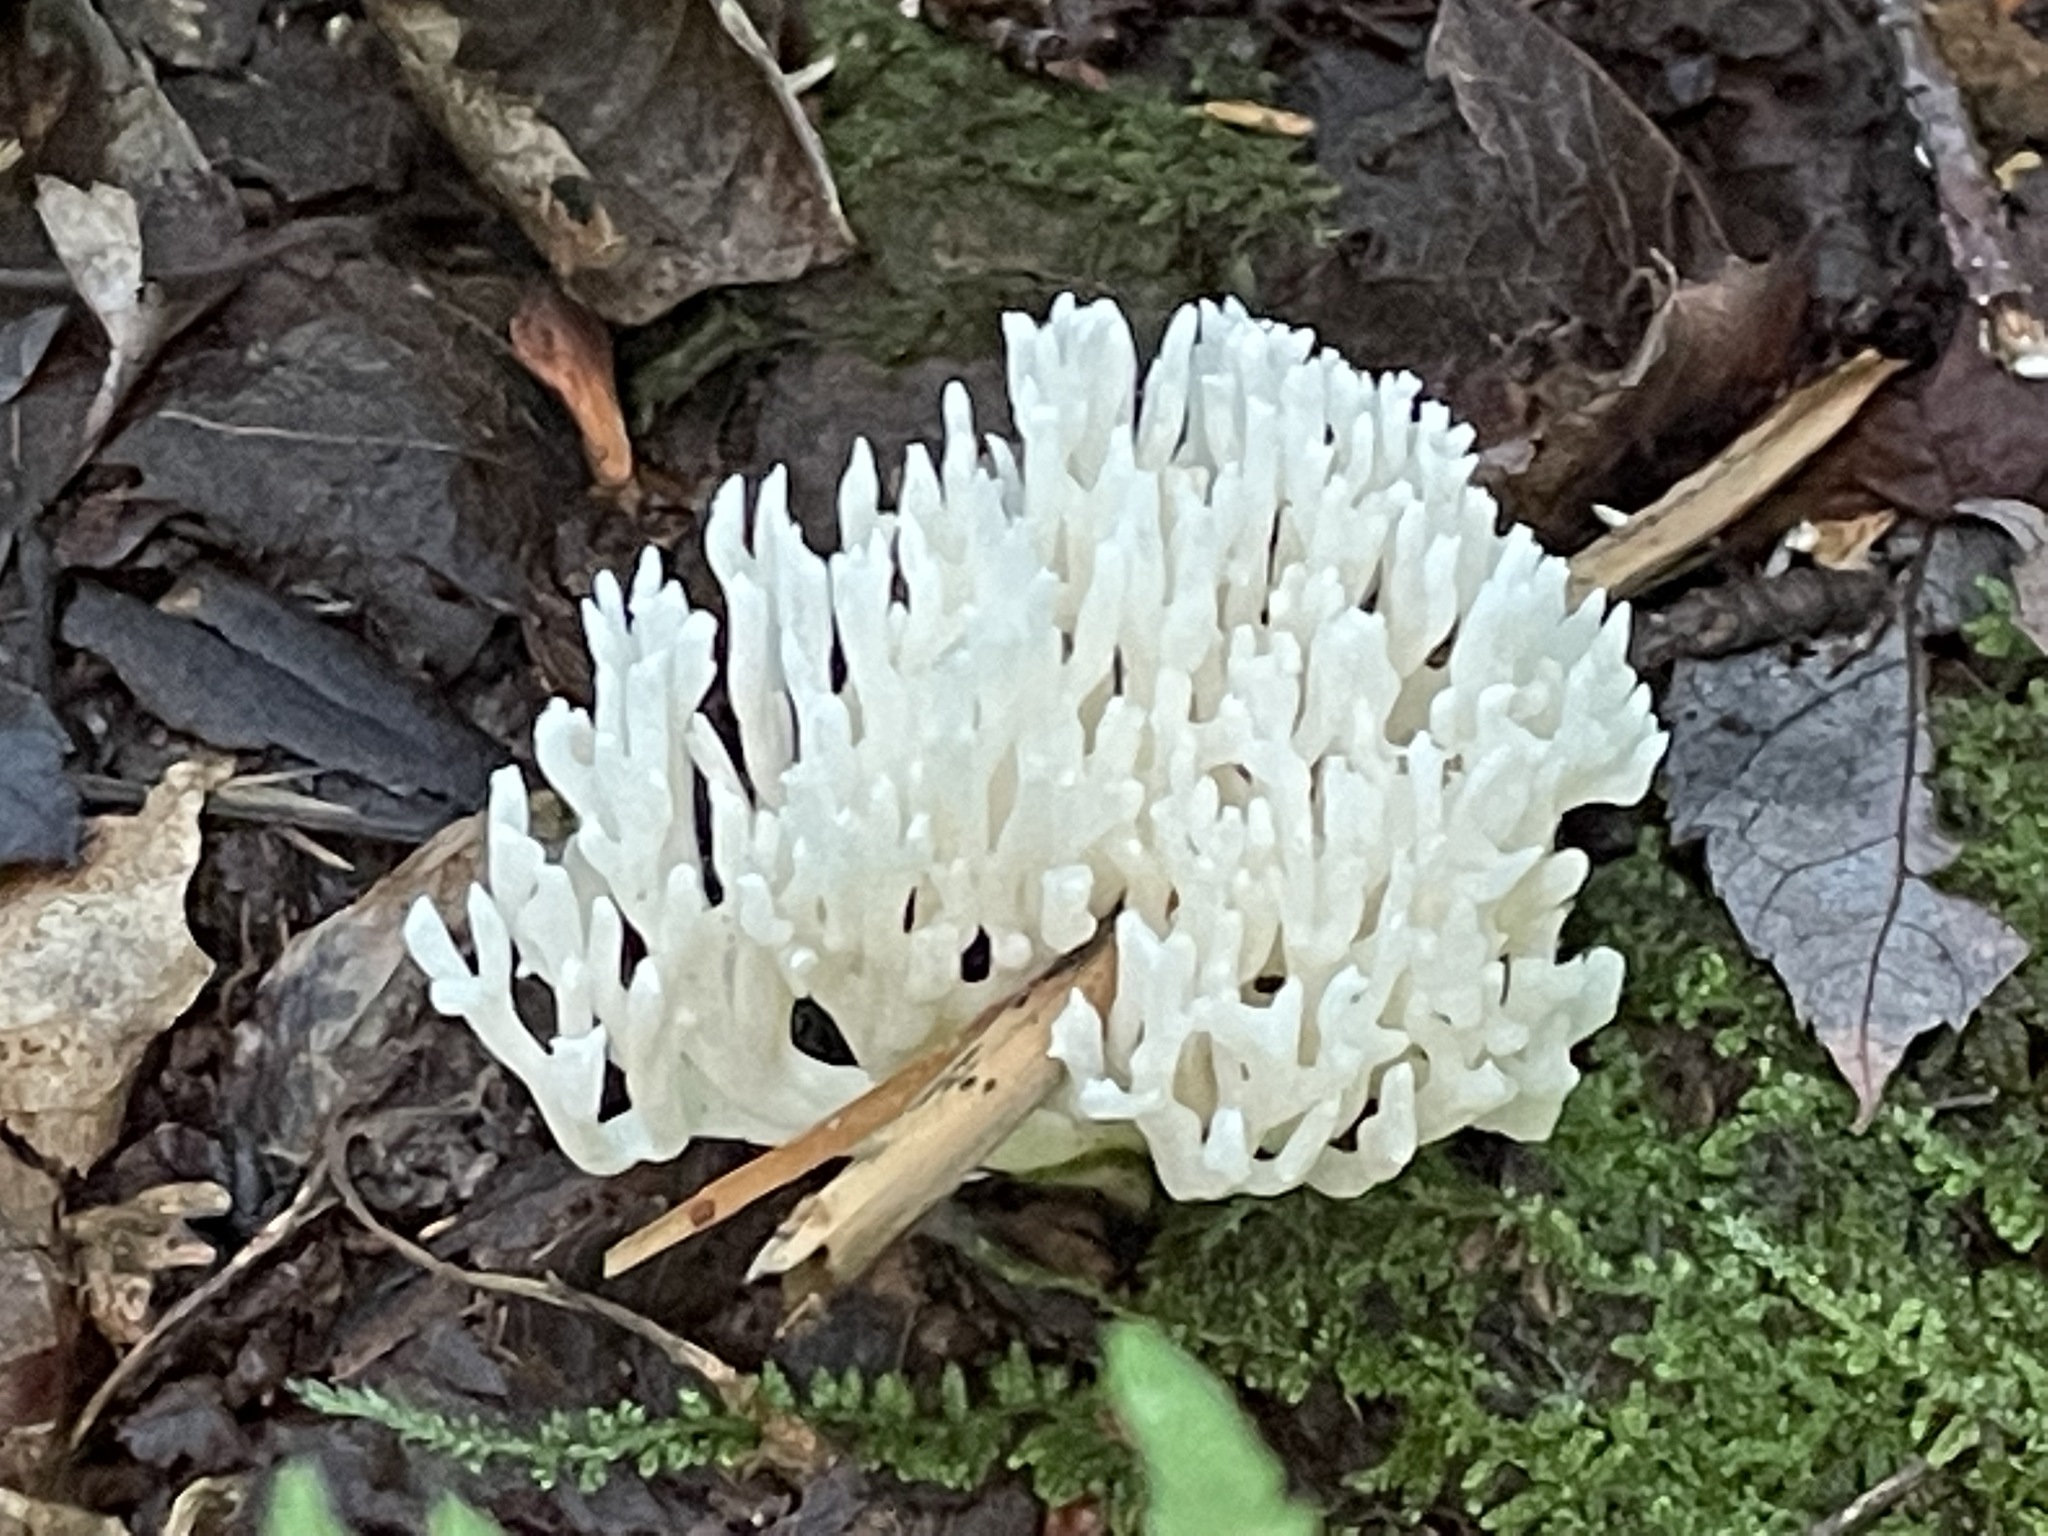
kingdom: Fungi
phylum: Basidiomycota
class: Agaricomycetes
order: Agaricales
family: Clavariaceae
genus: Ramariopsis
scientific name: Ramariopsis kunzei
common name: Ivory coral
